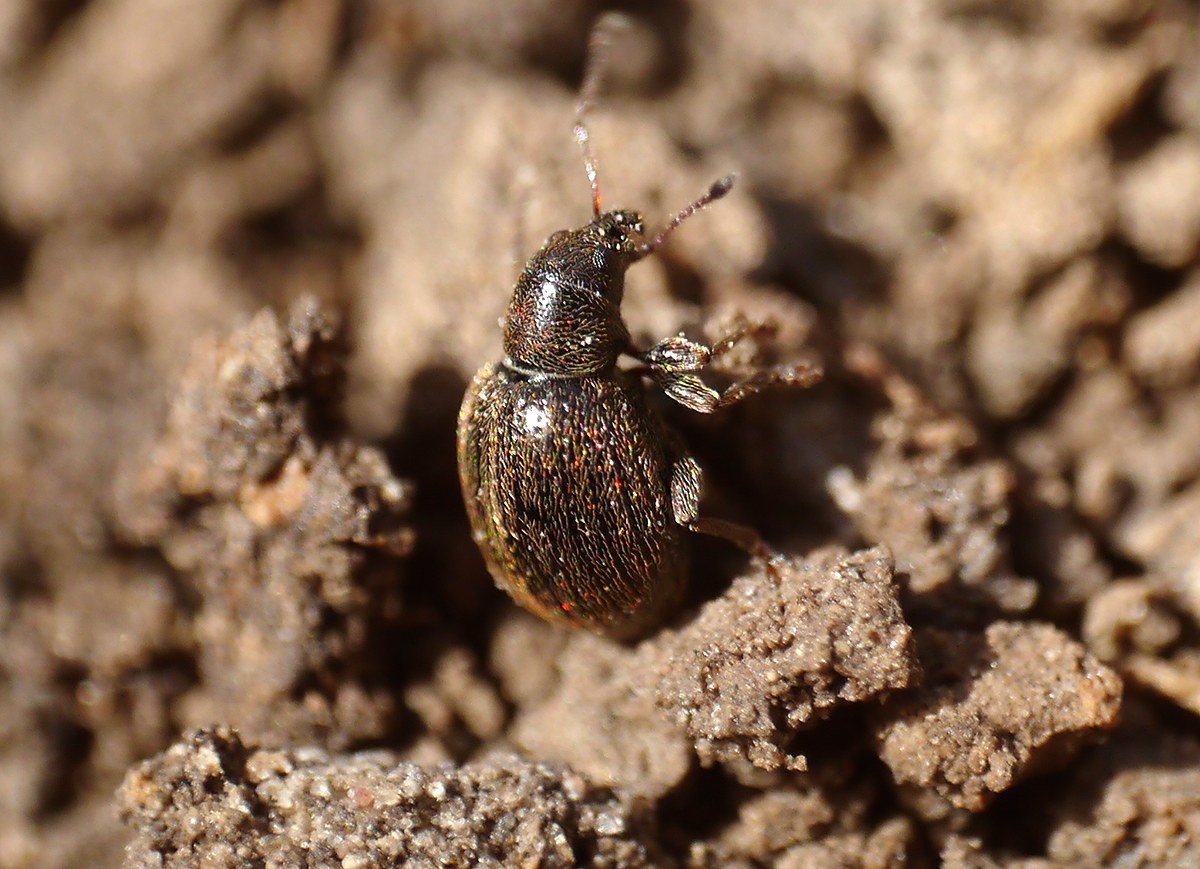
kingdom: Animalia
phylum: Arthropoda
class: Insecta
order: Coleoptera
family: Curculionidae
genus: Omias
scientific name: Omias puberulus
